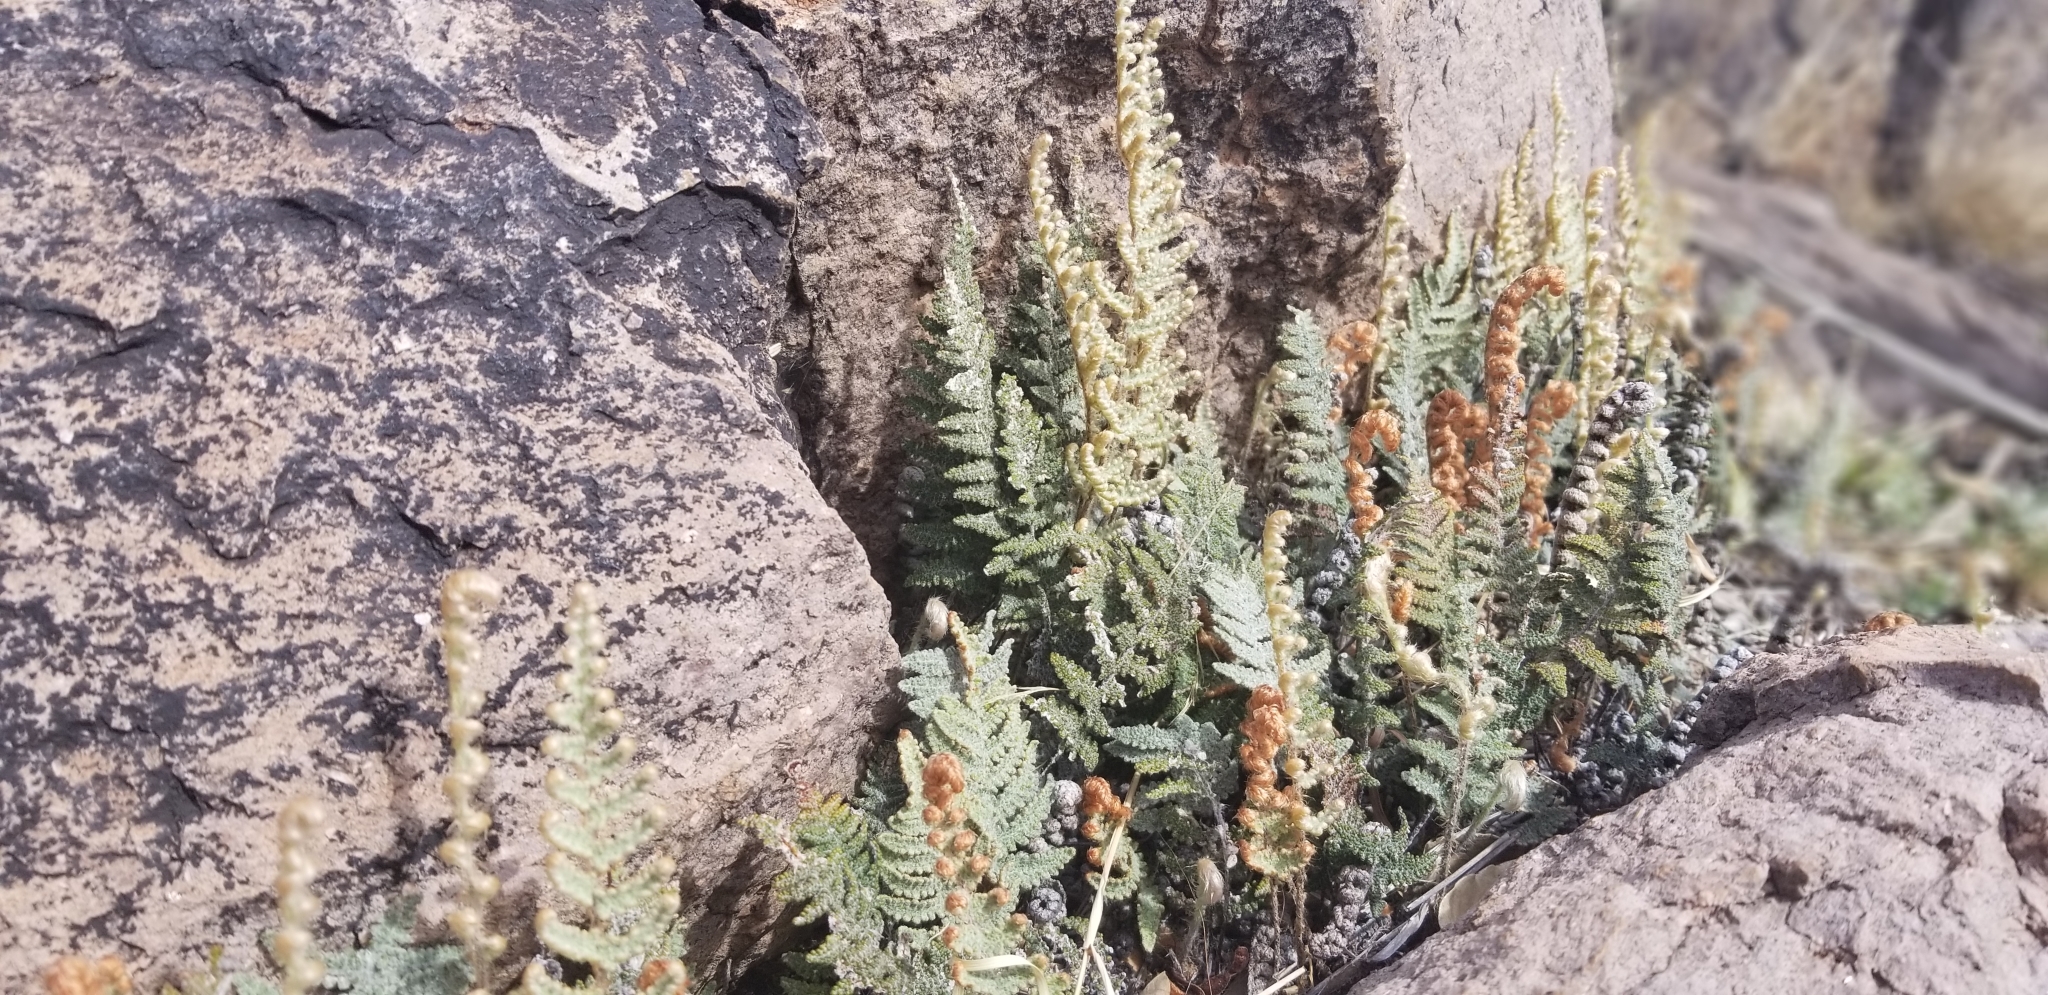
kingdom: Plantae
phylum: Tracheophyta
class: Polypodiopsida
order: Polypodiales
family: Pteridaceae
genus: Myriopteris
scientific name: Myriopteris lindheimeri
